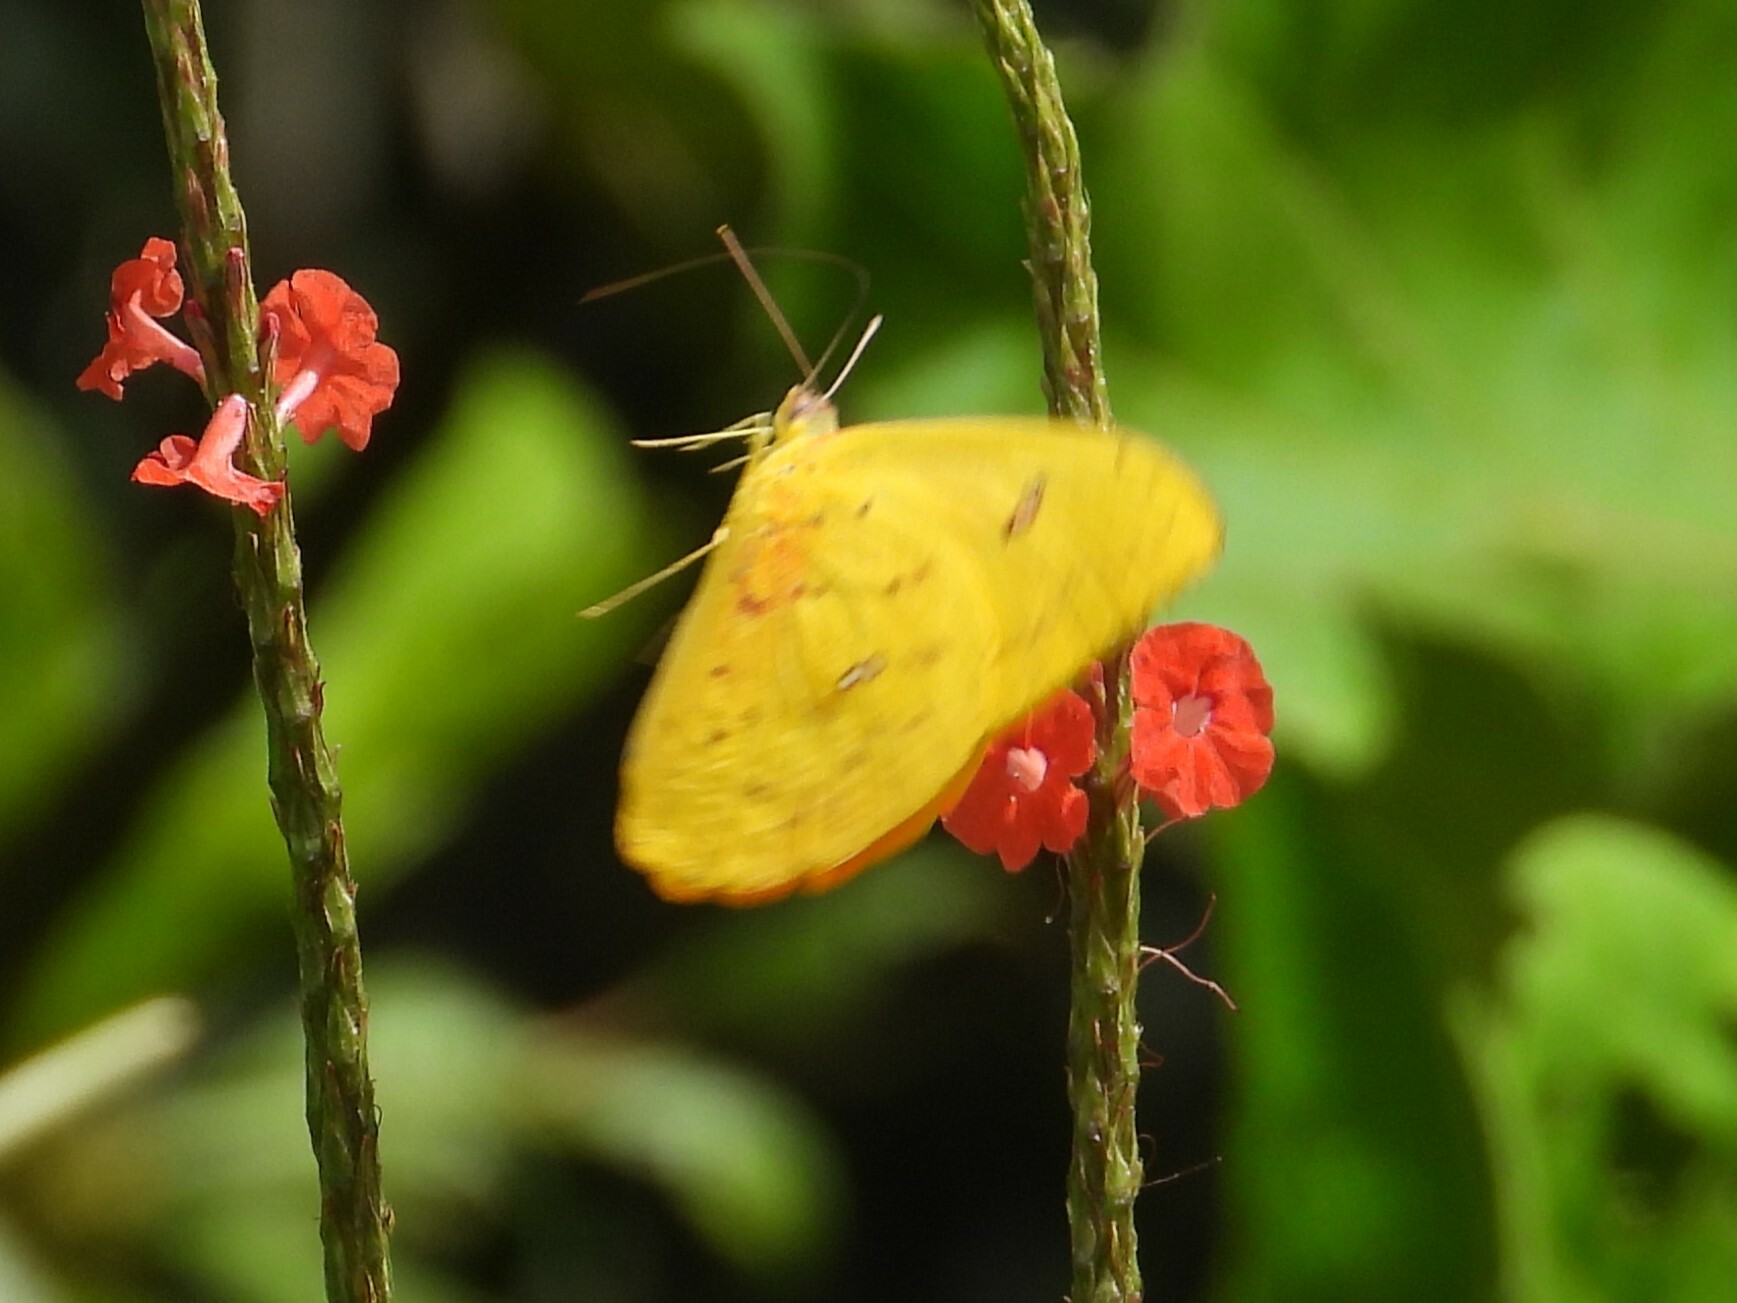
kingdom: Animalia
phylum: Arthropoda
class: Insecta
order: Lepidoptera
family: Pieridae
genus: Phoebis
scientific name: Phoebis philea
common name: Orange-barred giant sulphur
